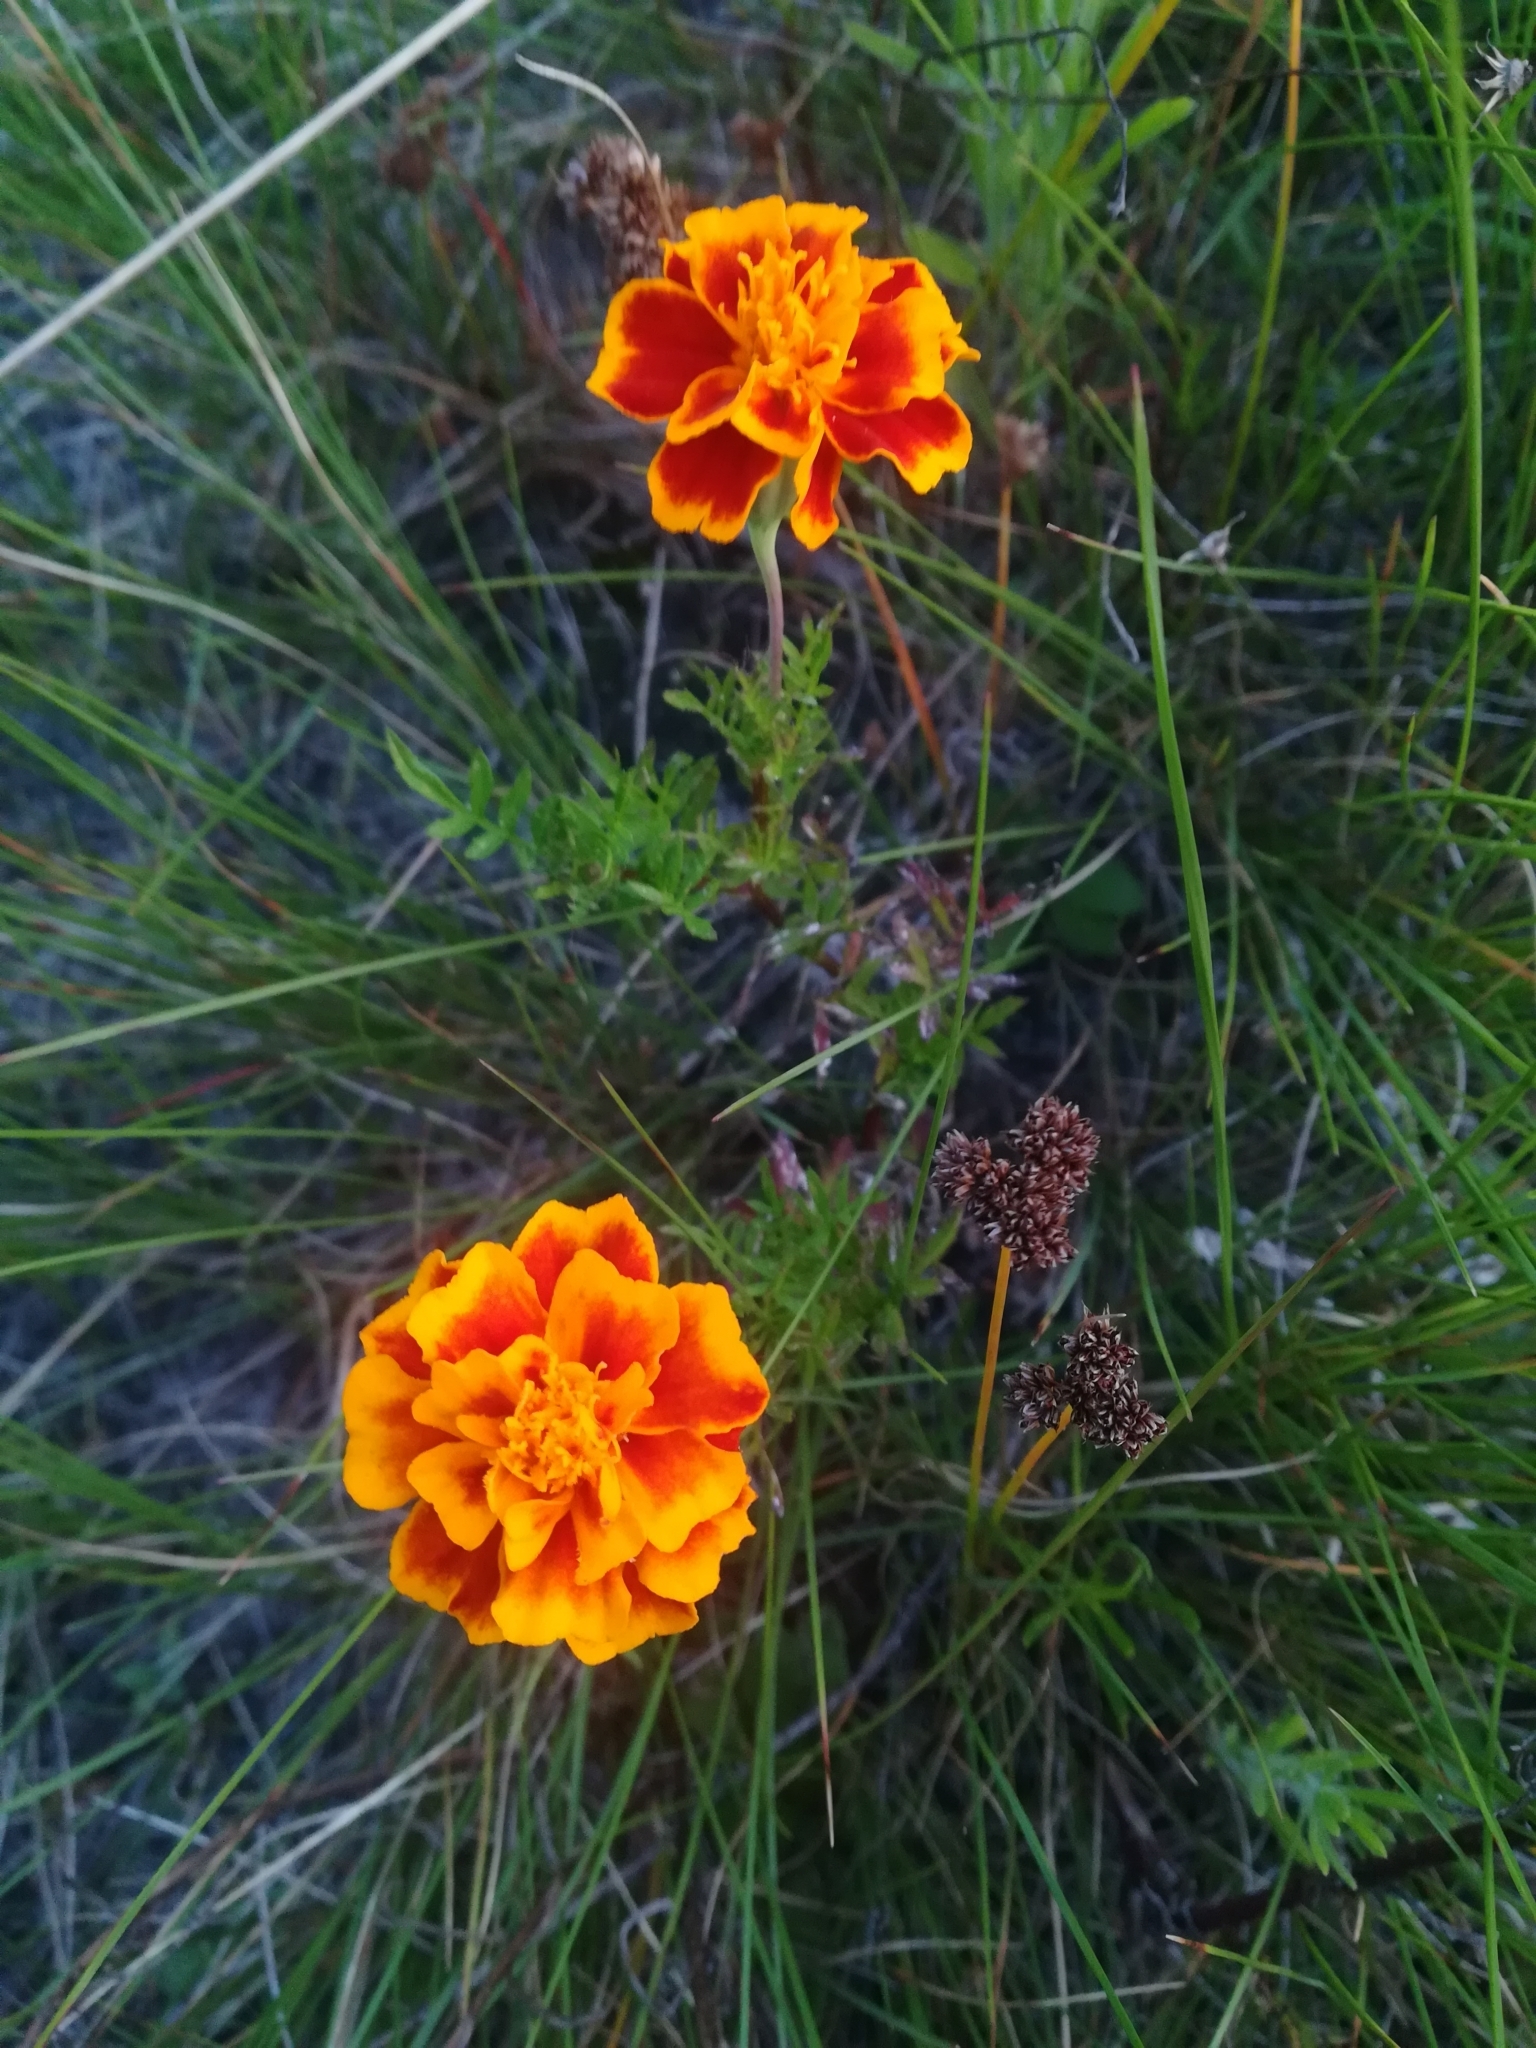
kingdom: Plantae
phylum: Tracheophyta
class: Magnoliopsida
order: Asterales
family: Asteraceae
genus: Tagetes
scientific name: Tagetes erecta
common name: African marigold
